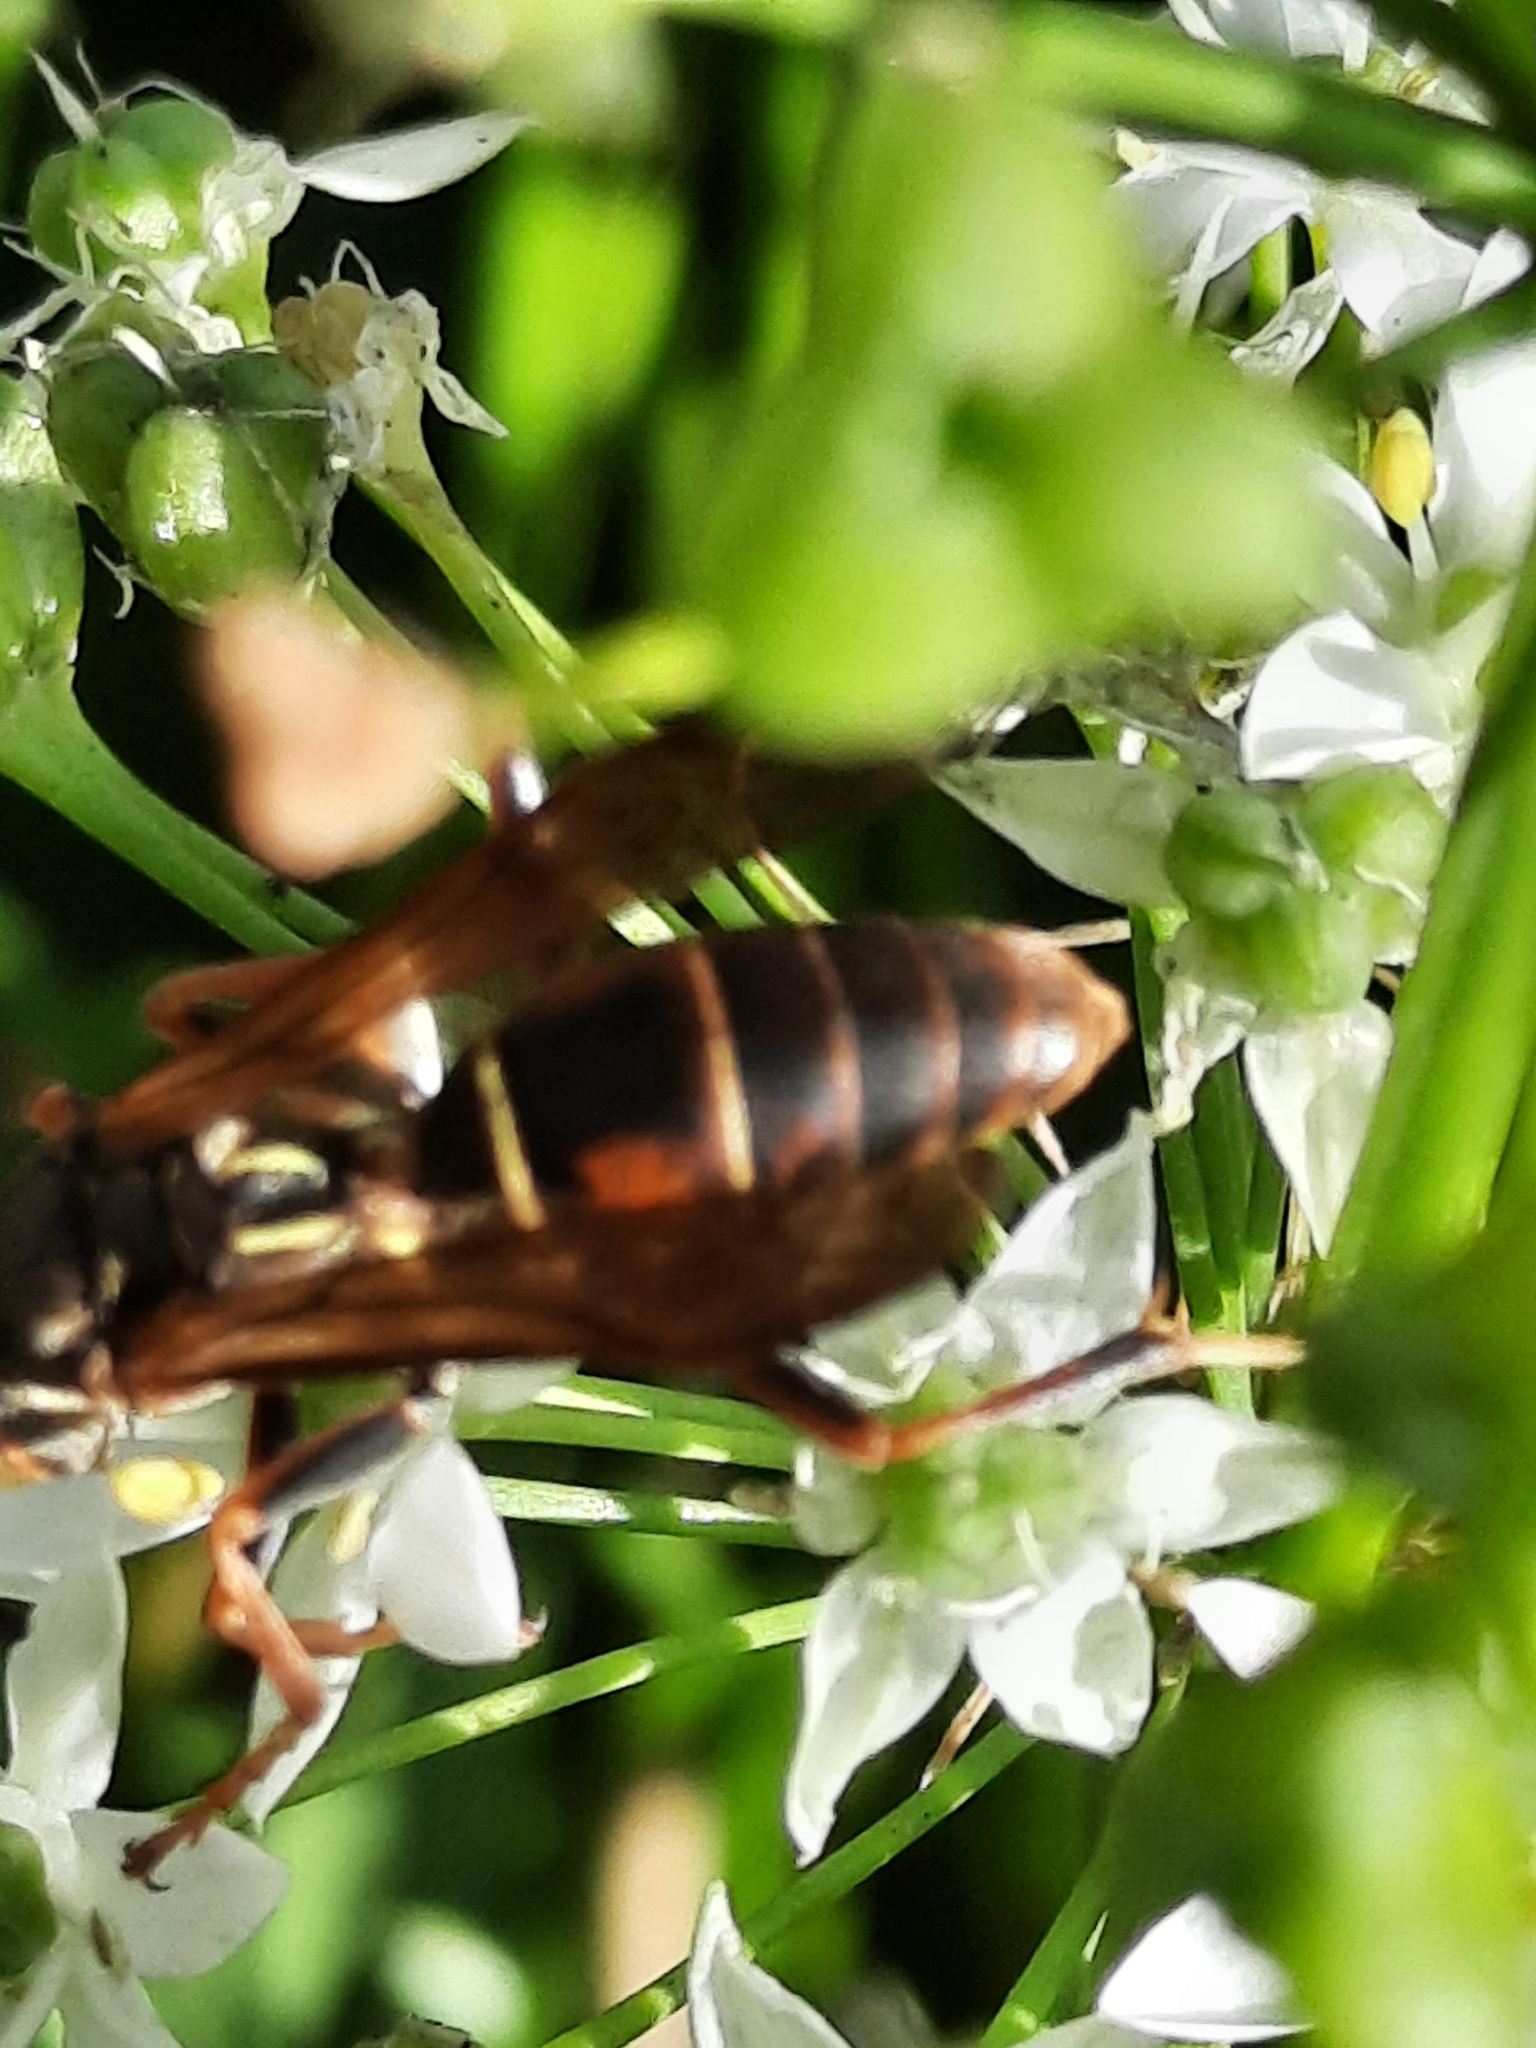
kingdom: Animalia
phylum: Arthropoda
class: Insecta
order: Hymenoptera
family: Eumenidae
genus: Polistes
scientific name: Polistes fuscatus
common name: Dark paper wasp
